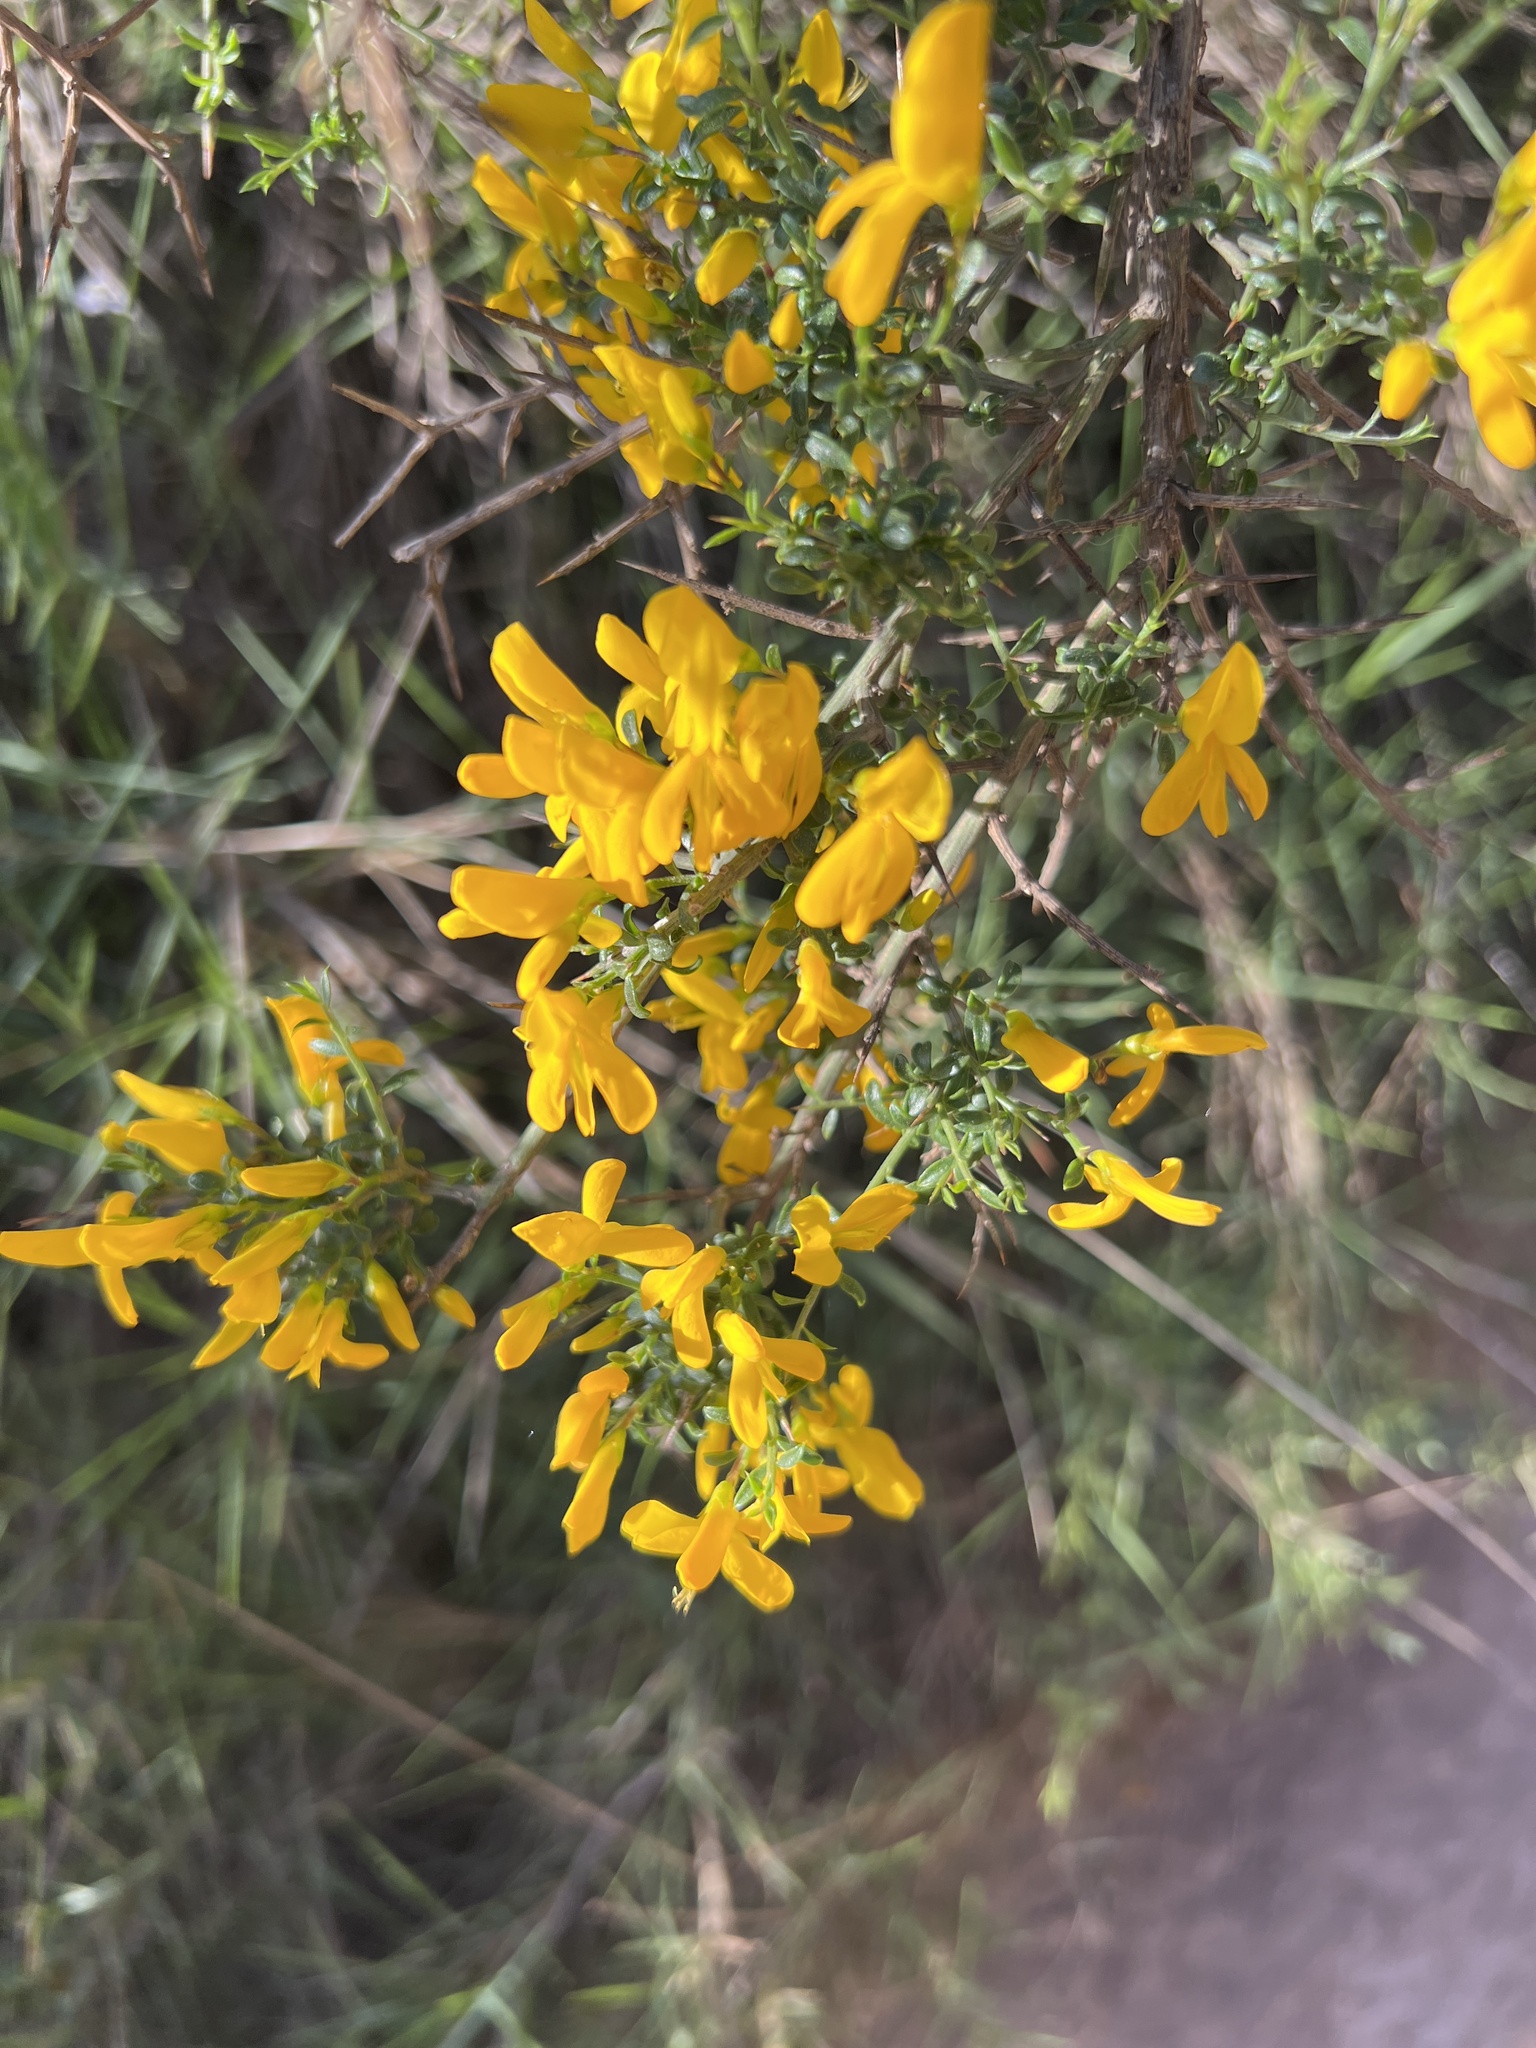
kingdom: Plantae
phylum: Tracheophyta
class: Magnoliopsida
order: Fabales
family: Fabaceae
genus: Genista
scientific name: Genista scorpius
